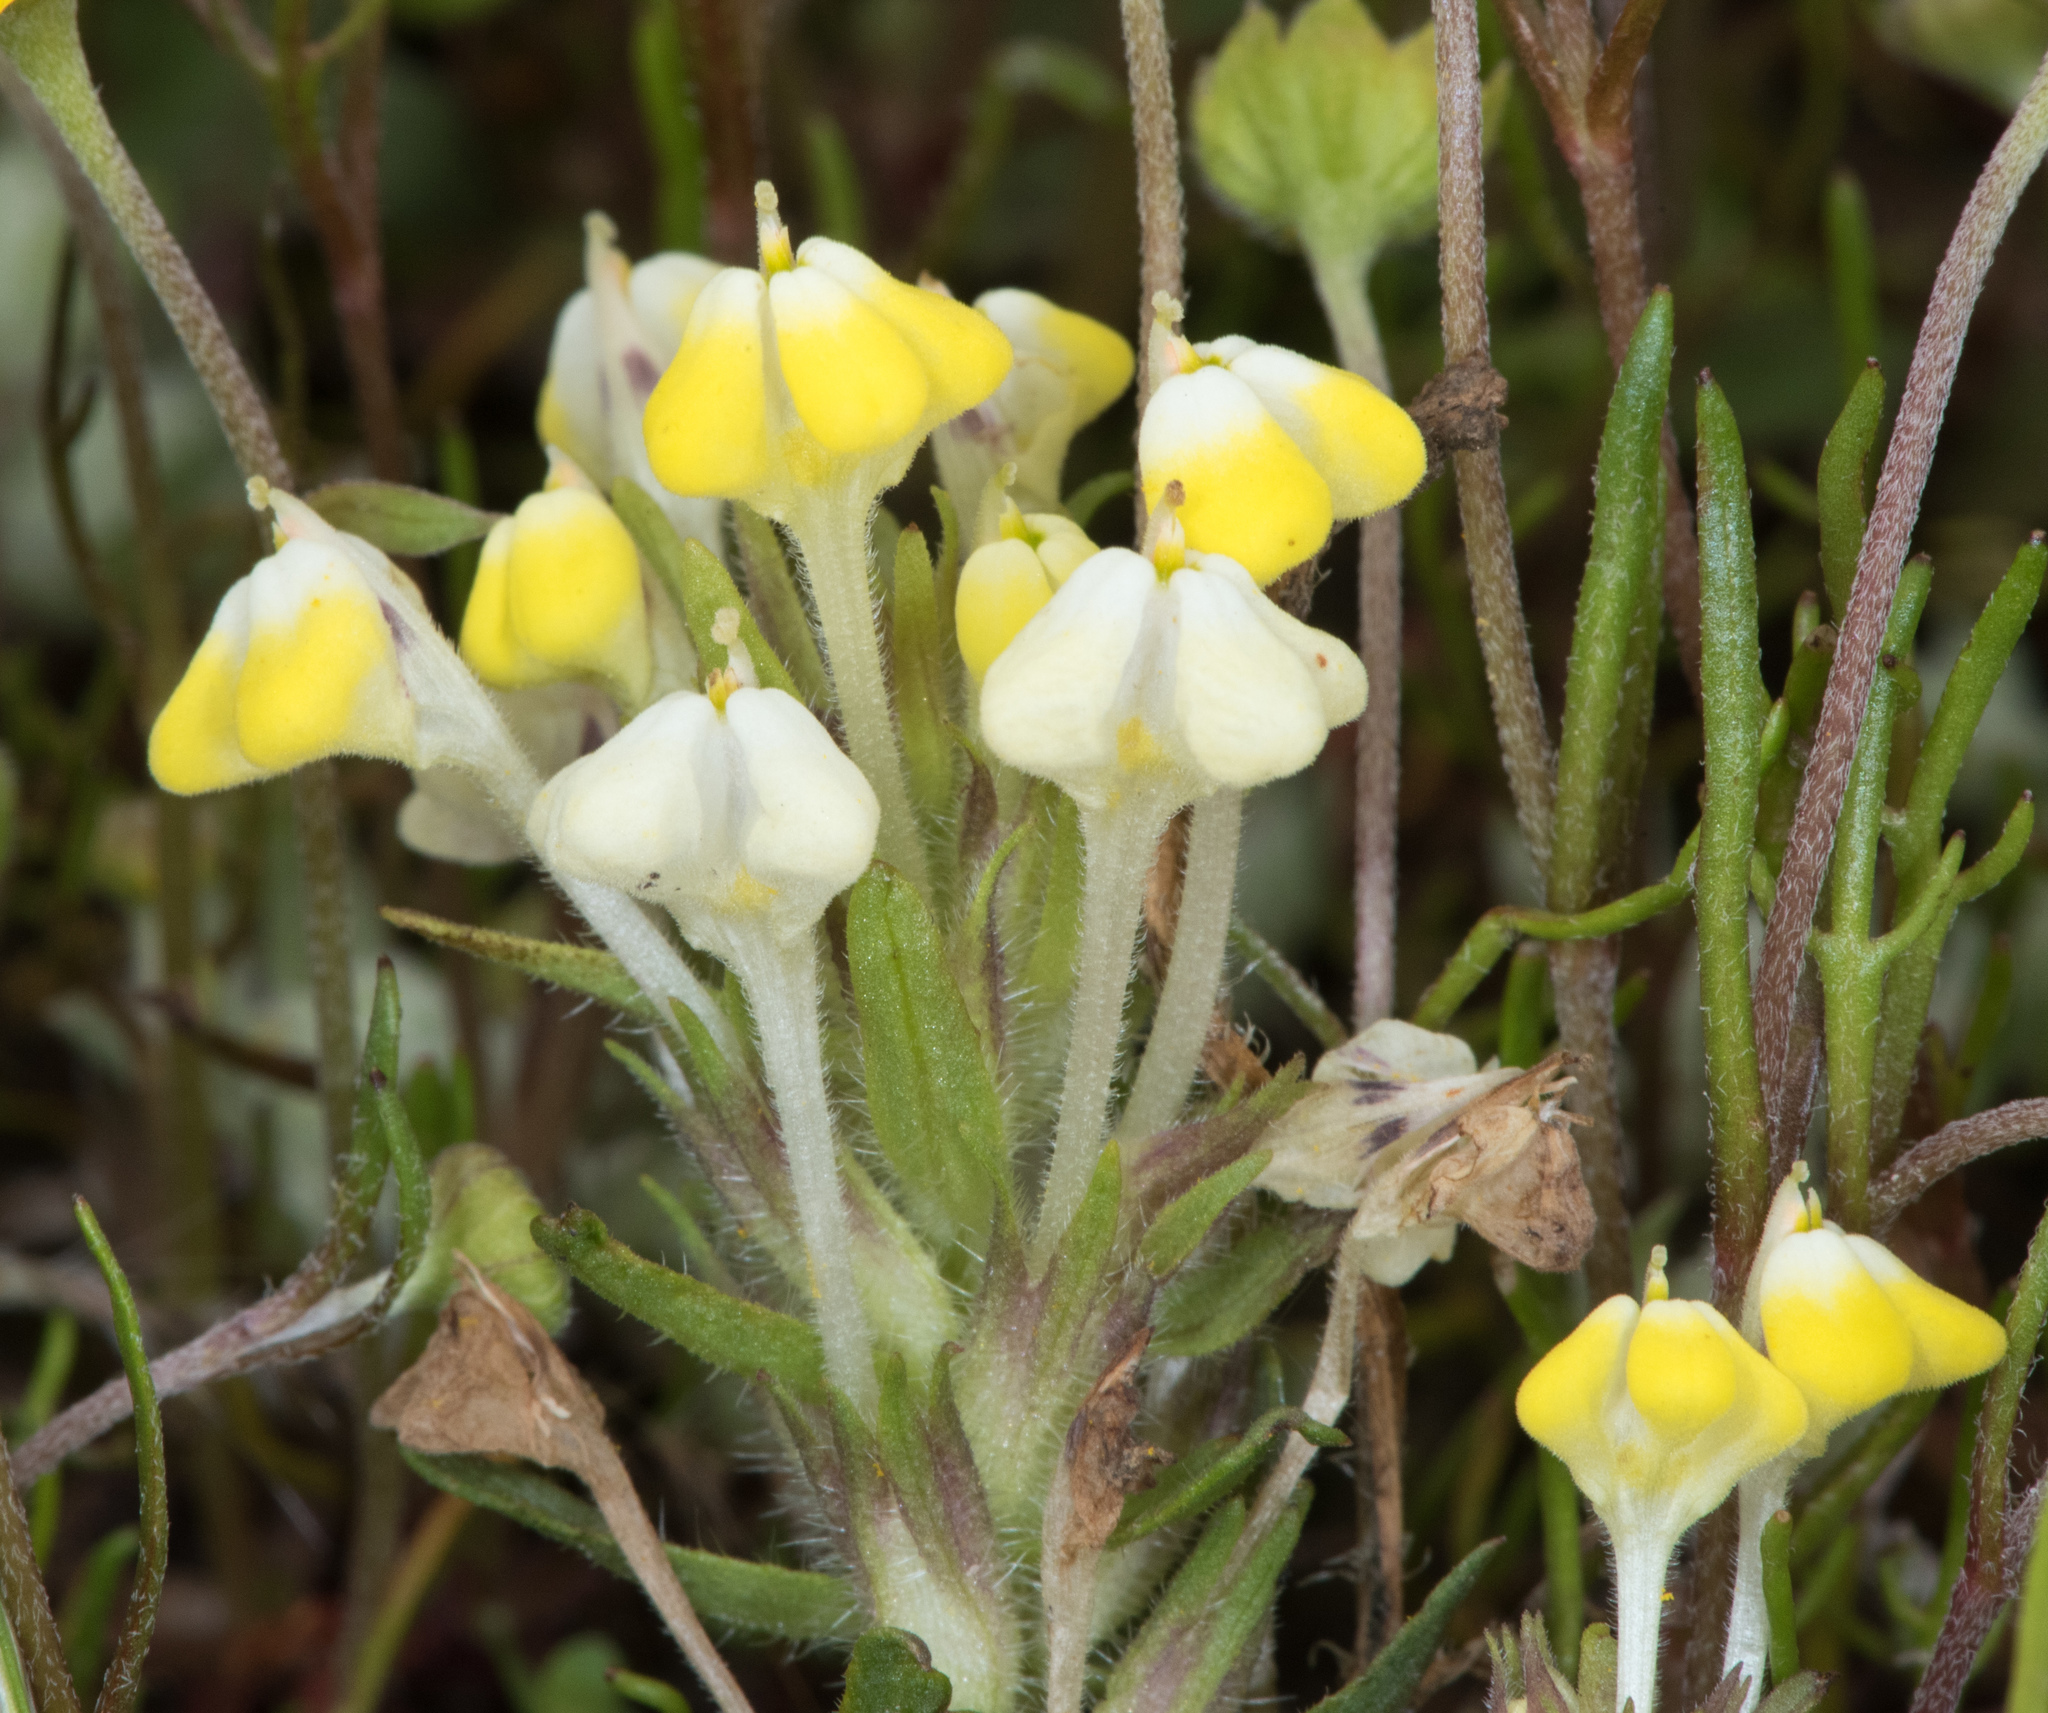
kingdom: Plantae
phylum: Tracheophyta
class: Magnoliopsida
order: Lamiales
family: Orobanchaceae
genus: Castilleja
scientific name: Castilleja campestris
